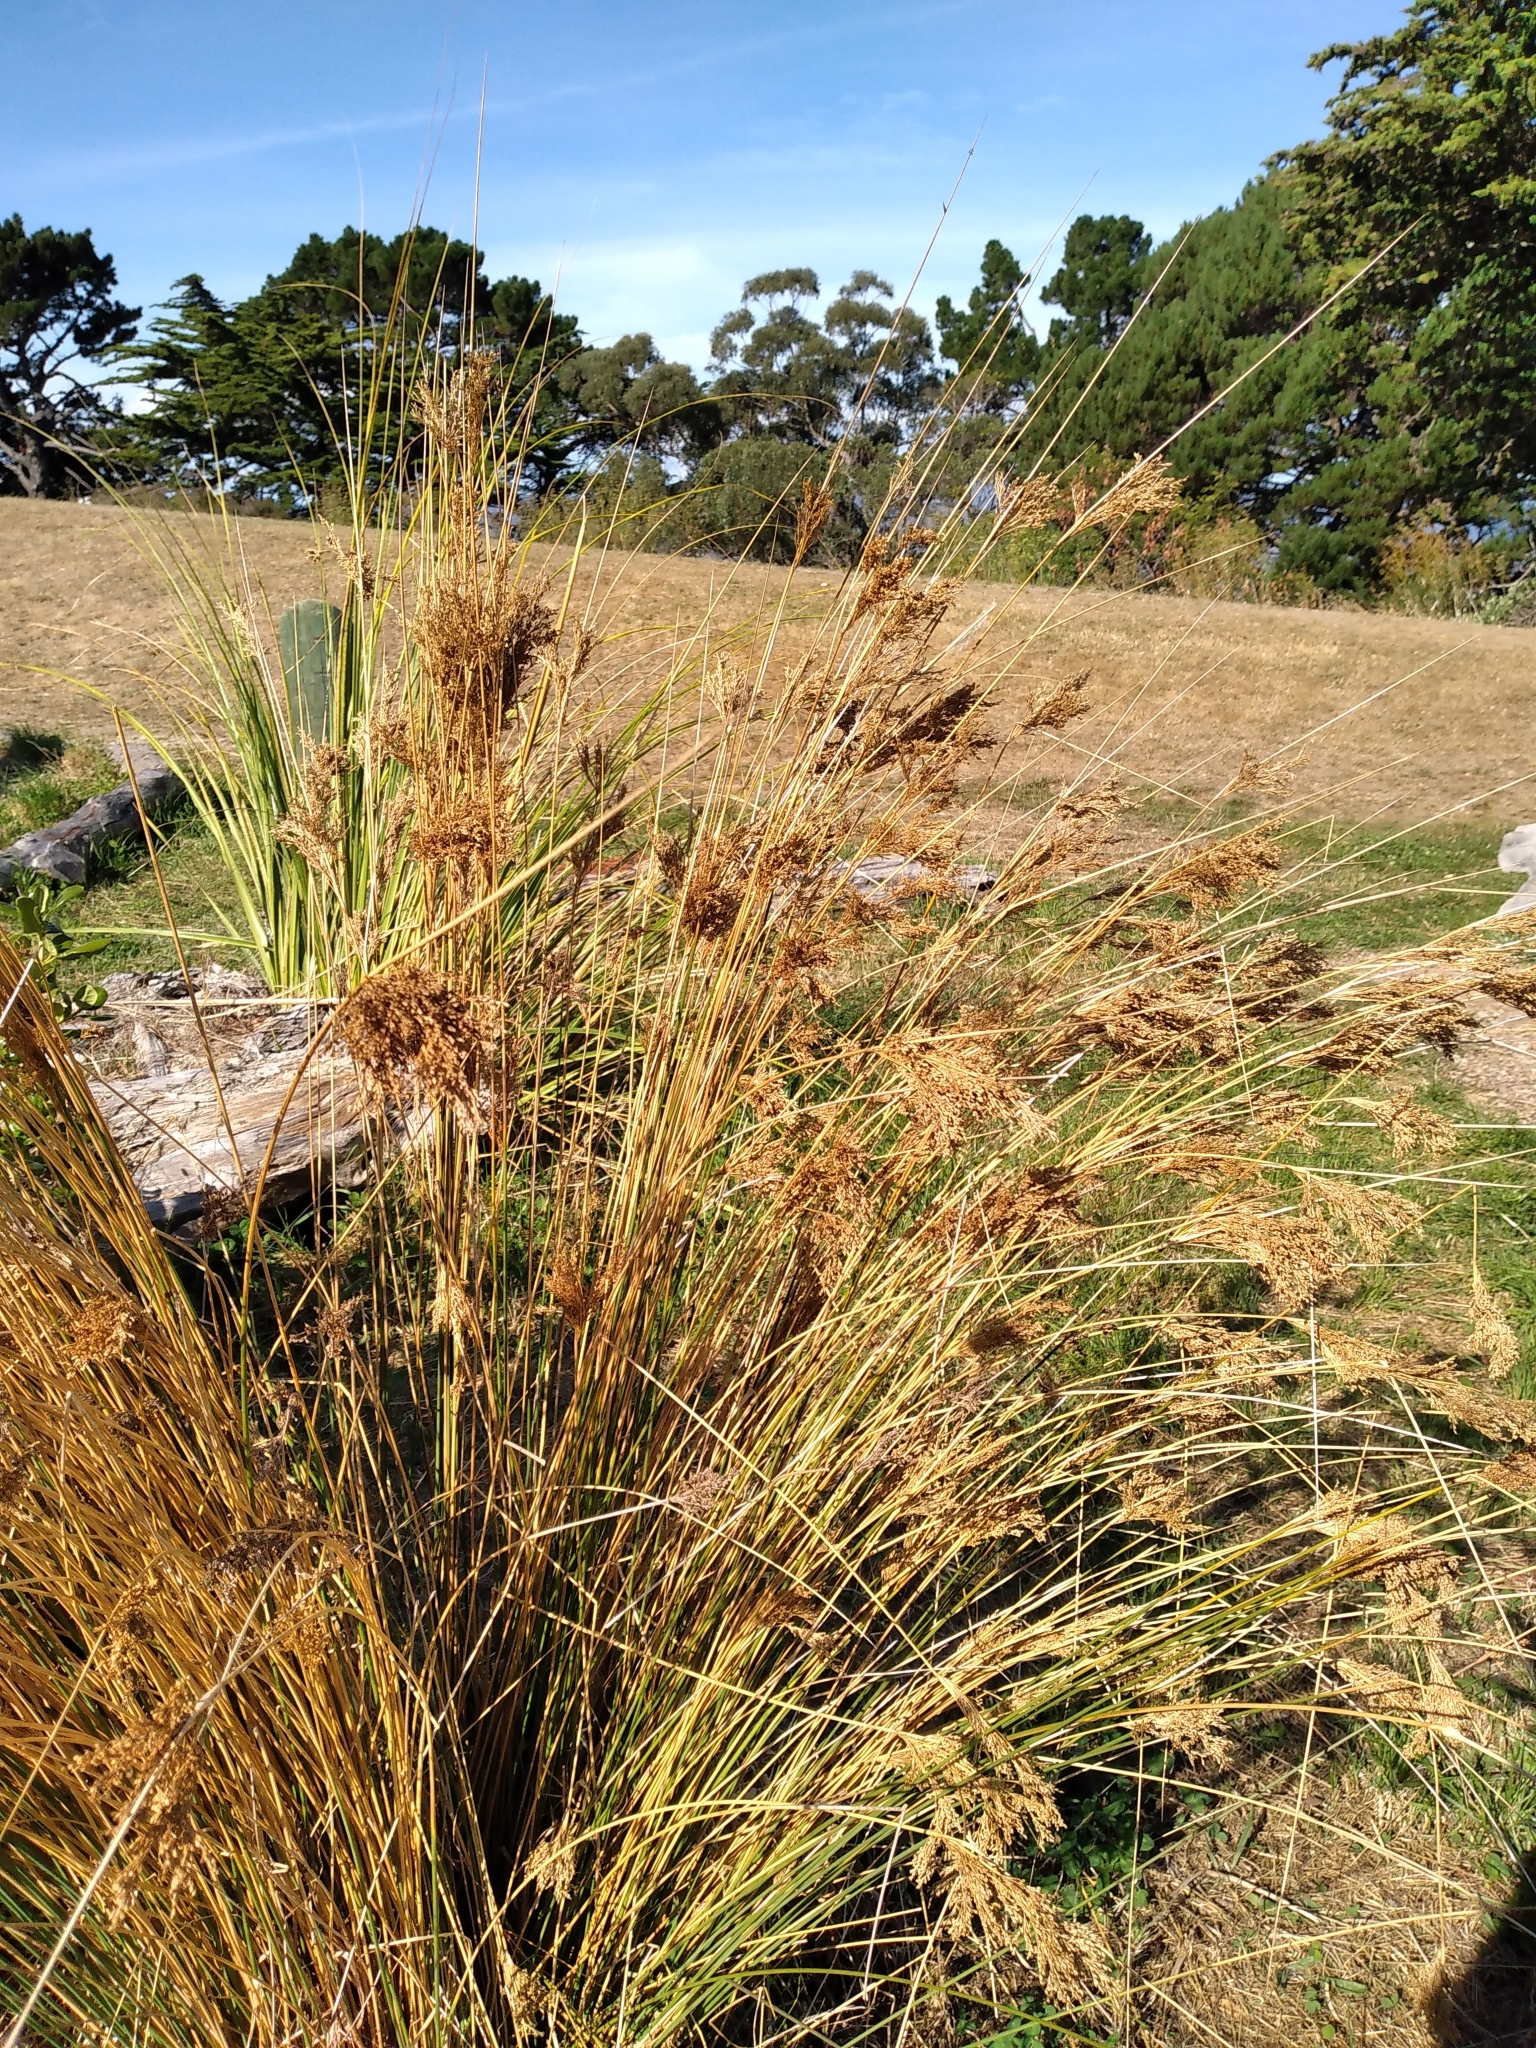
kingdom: Plantae
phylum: Tracheophyta
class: Liliopsida
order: Poales
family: Juncaceae
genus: Juncus
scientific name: Juncus sarophorus
